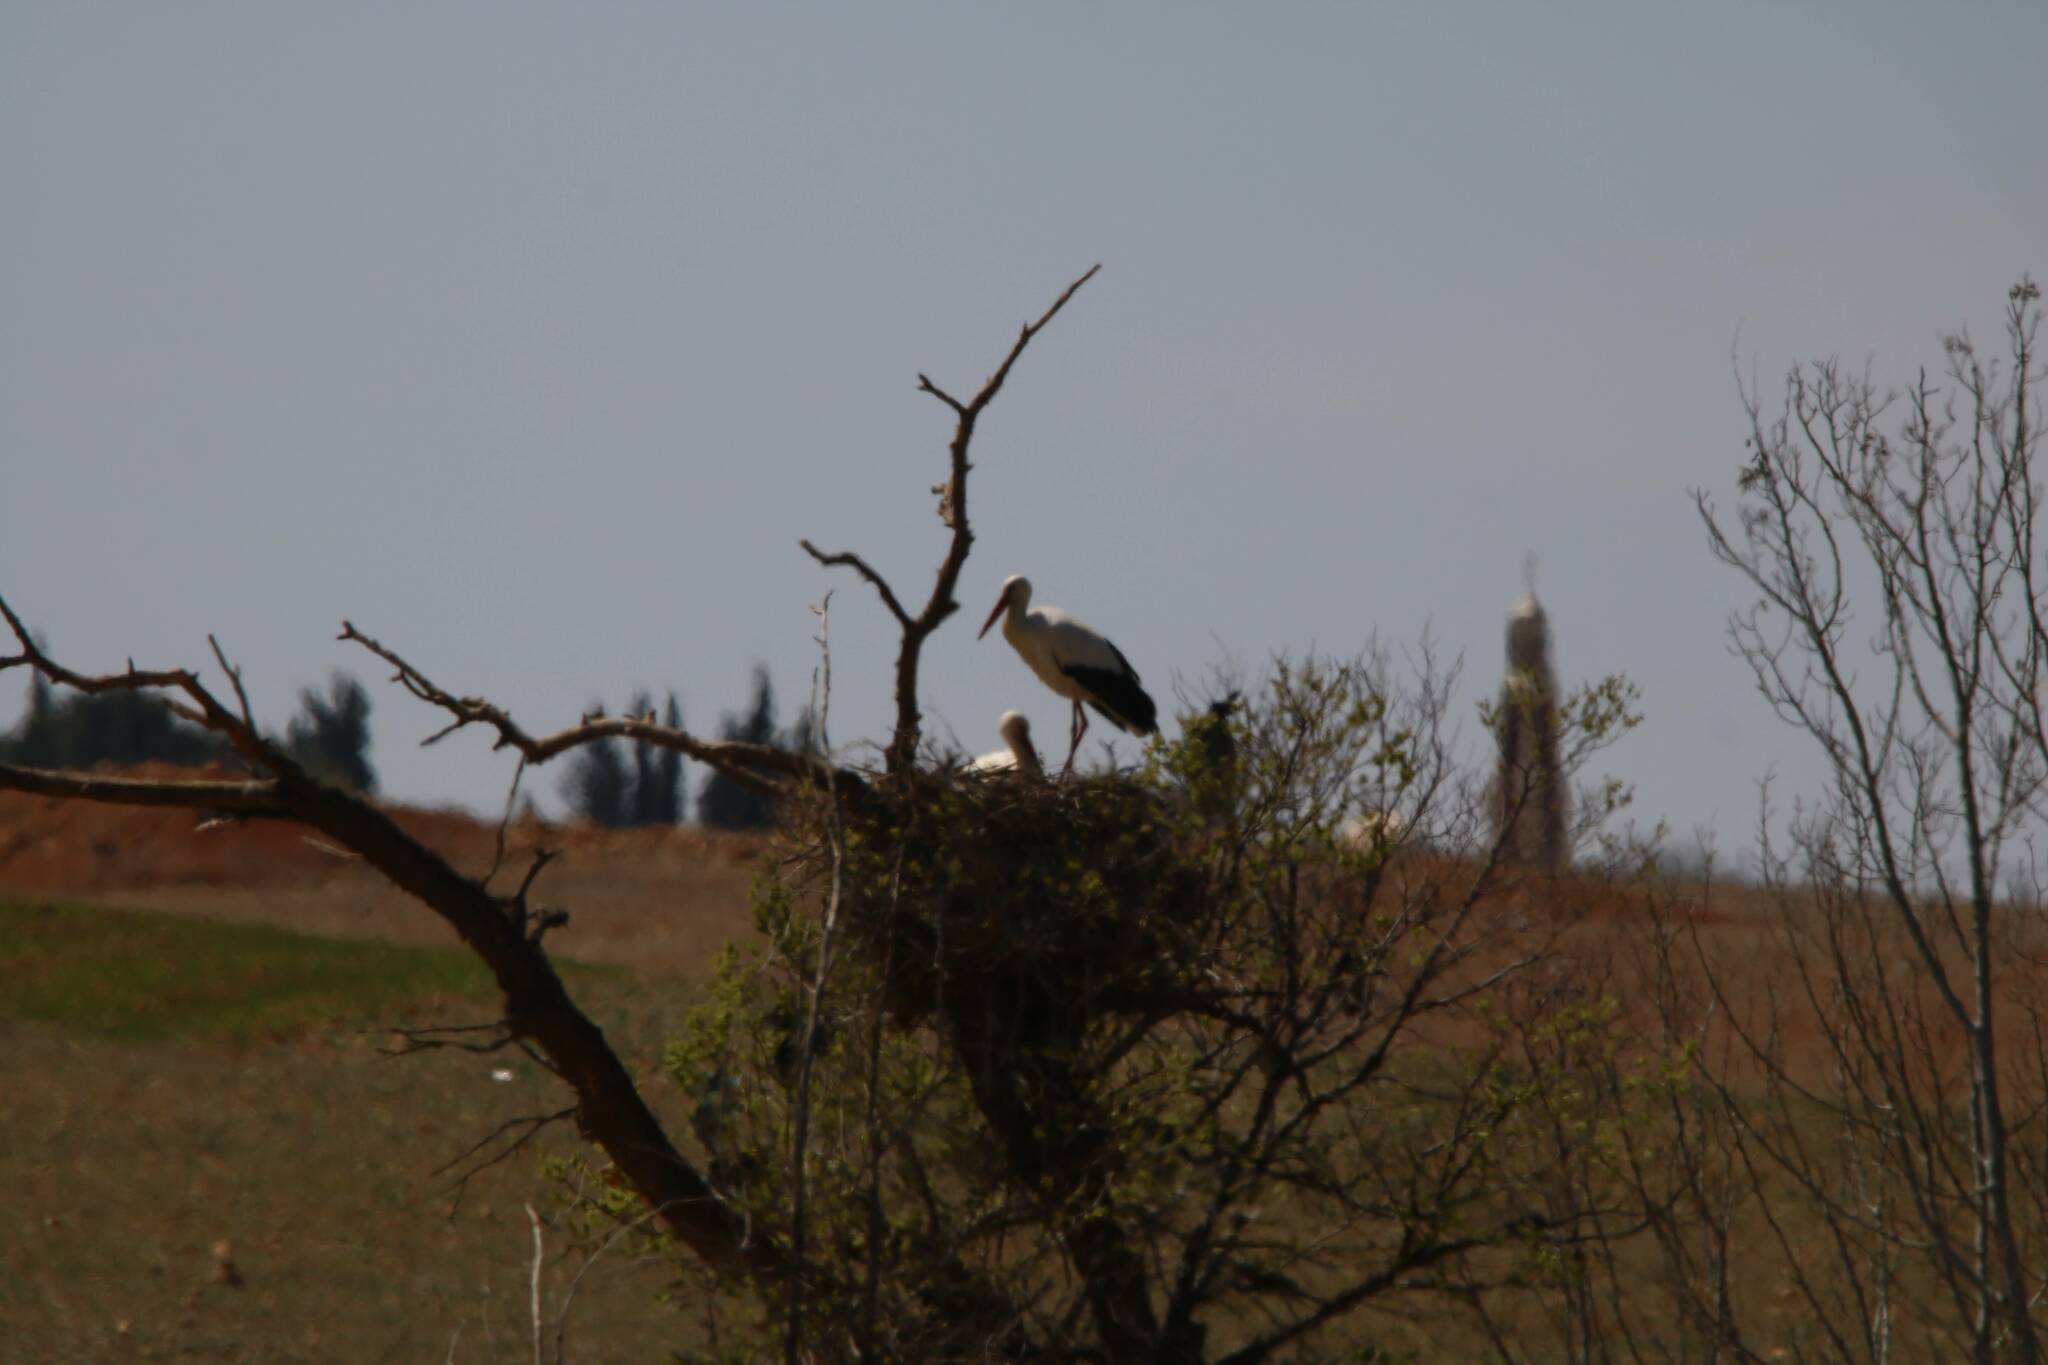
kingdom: Animalia
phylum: Chordata
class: Aves
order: Ciconiiformes
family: Ciconiidae
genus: Ciconia
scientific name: Ciconia ciconia
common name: White stork
